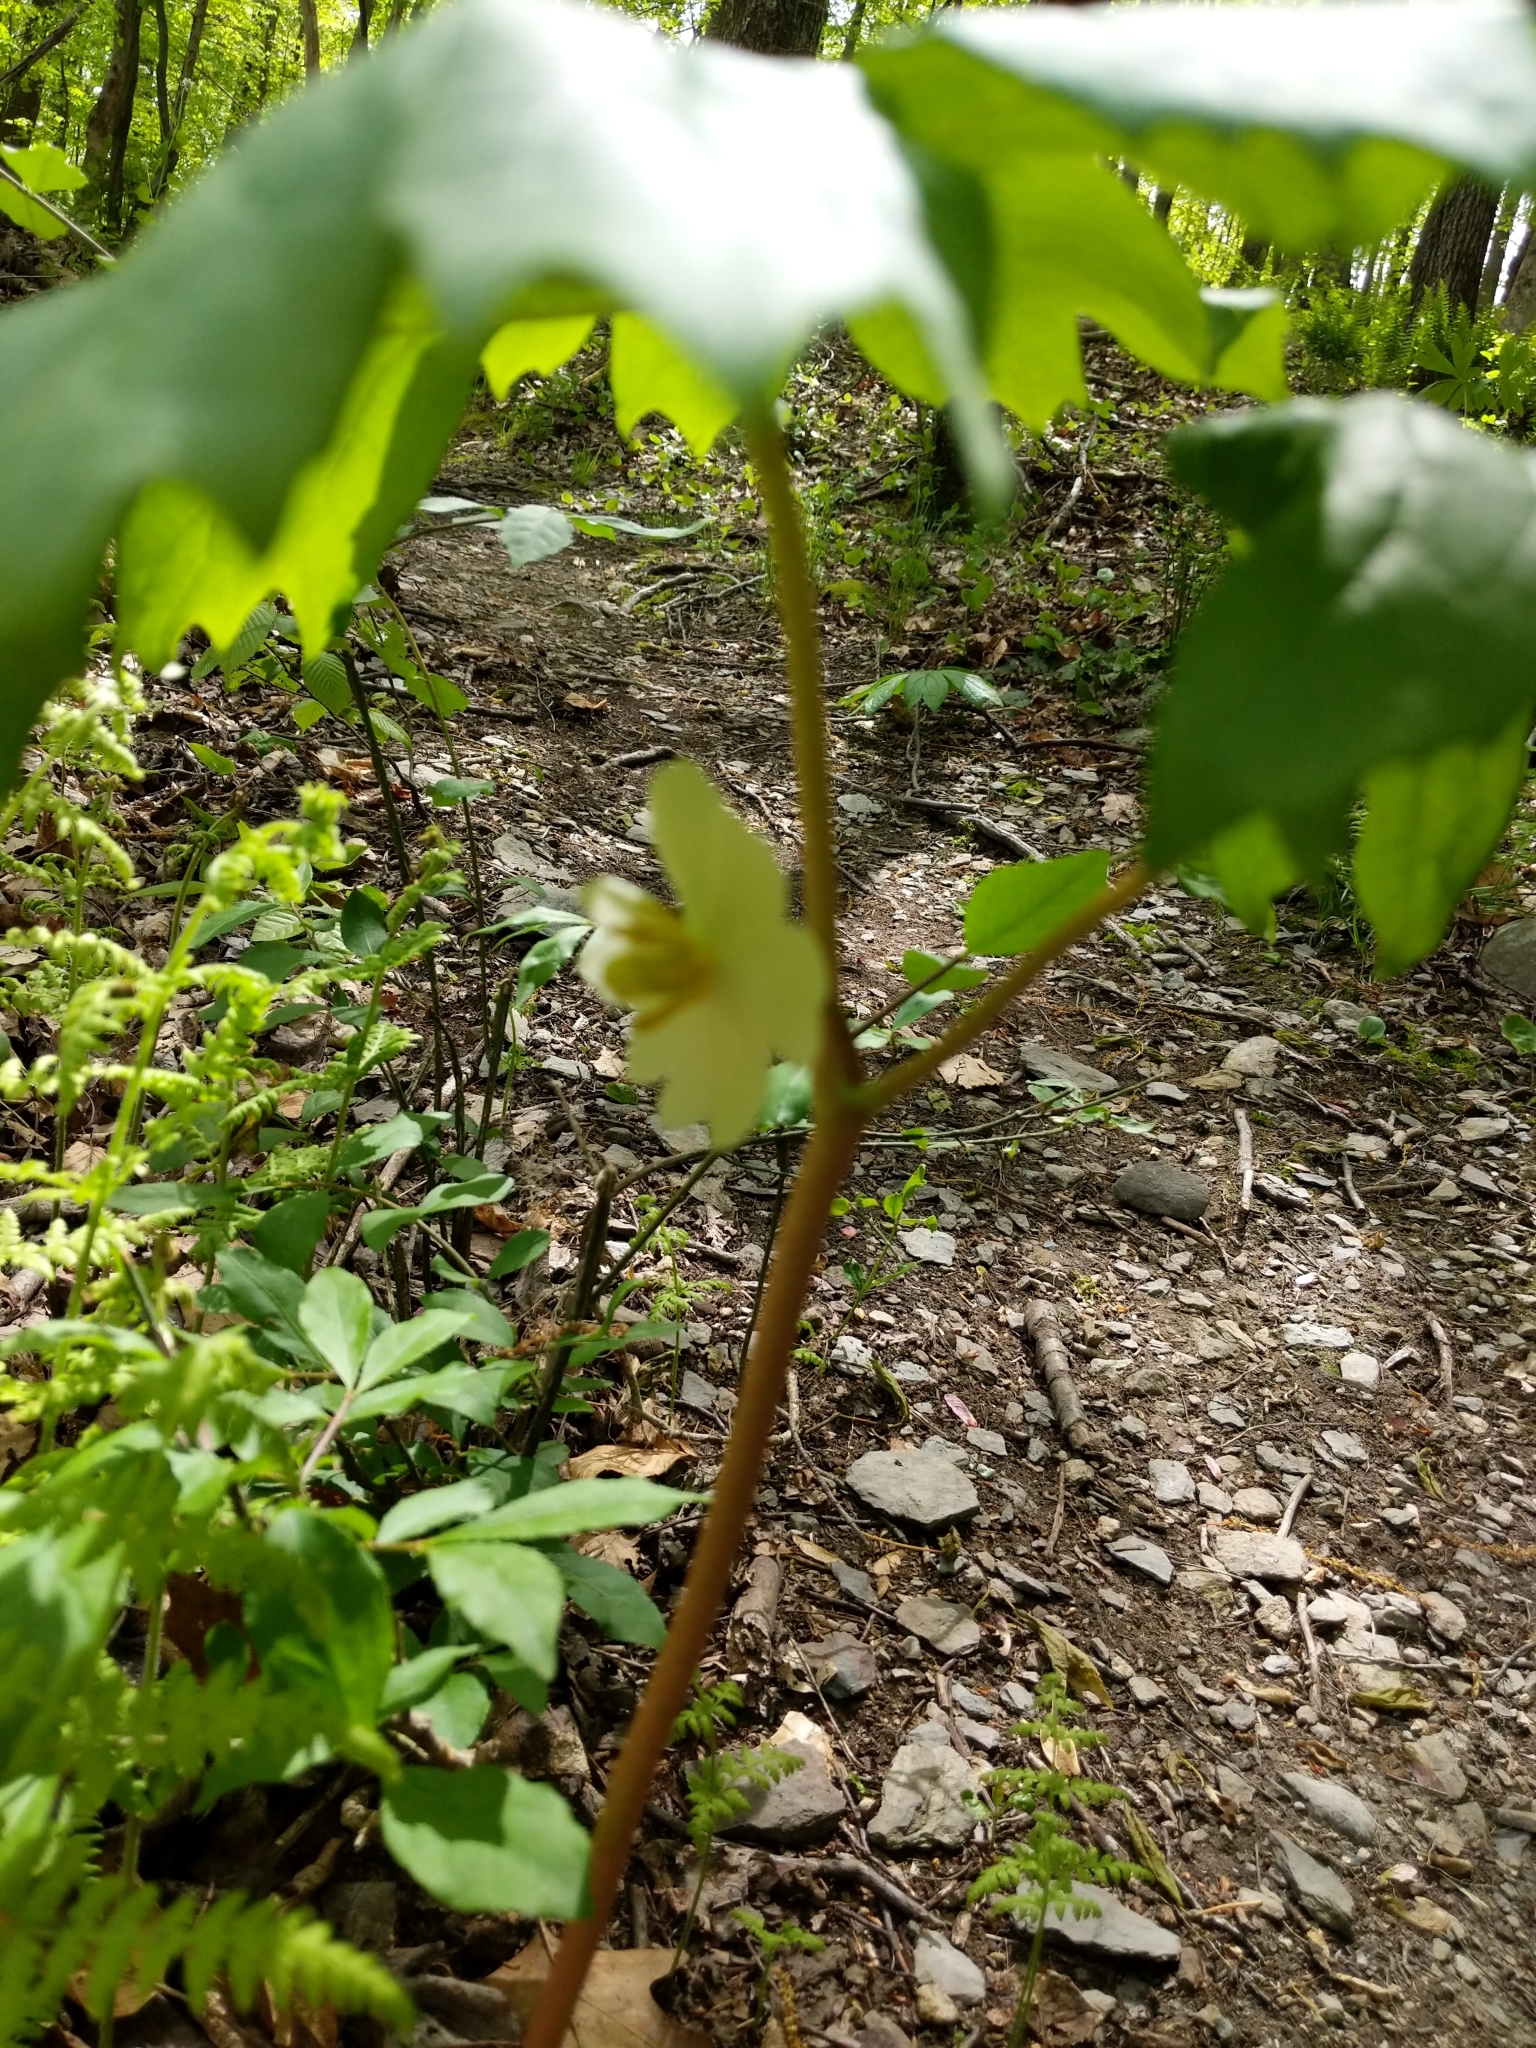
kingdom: Plantae
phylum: Tracheophyta
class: Magnoliopsida
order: Ranunculales
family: Berberidaceae
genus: Podophyllum
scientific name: Podophyllum peltatum
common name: Wild mandrake
